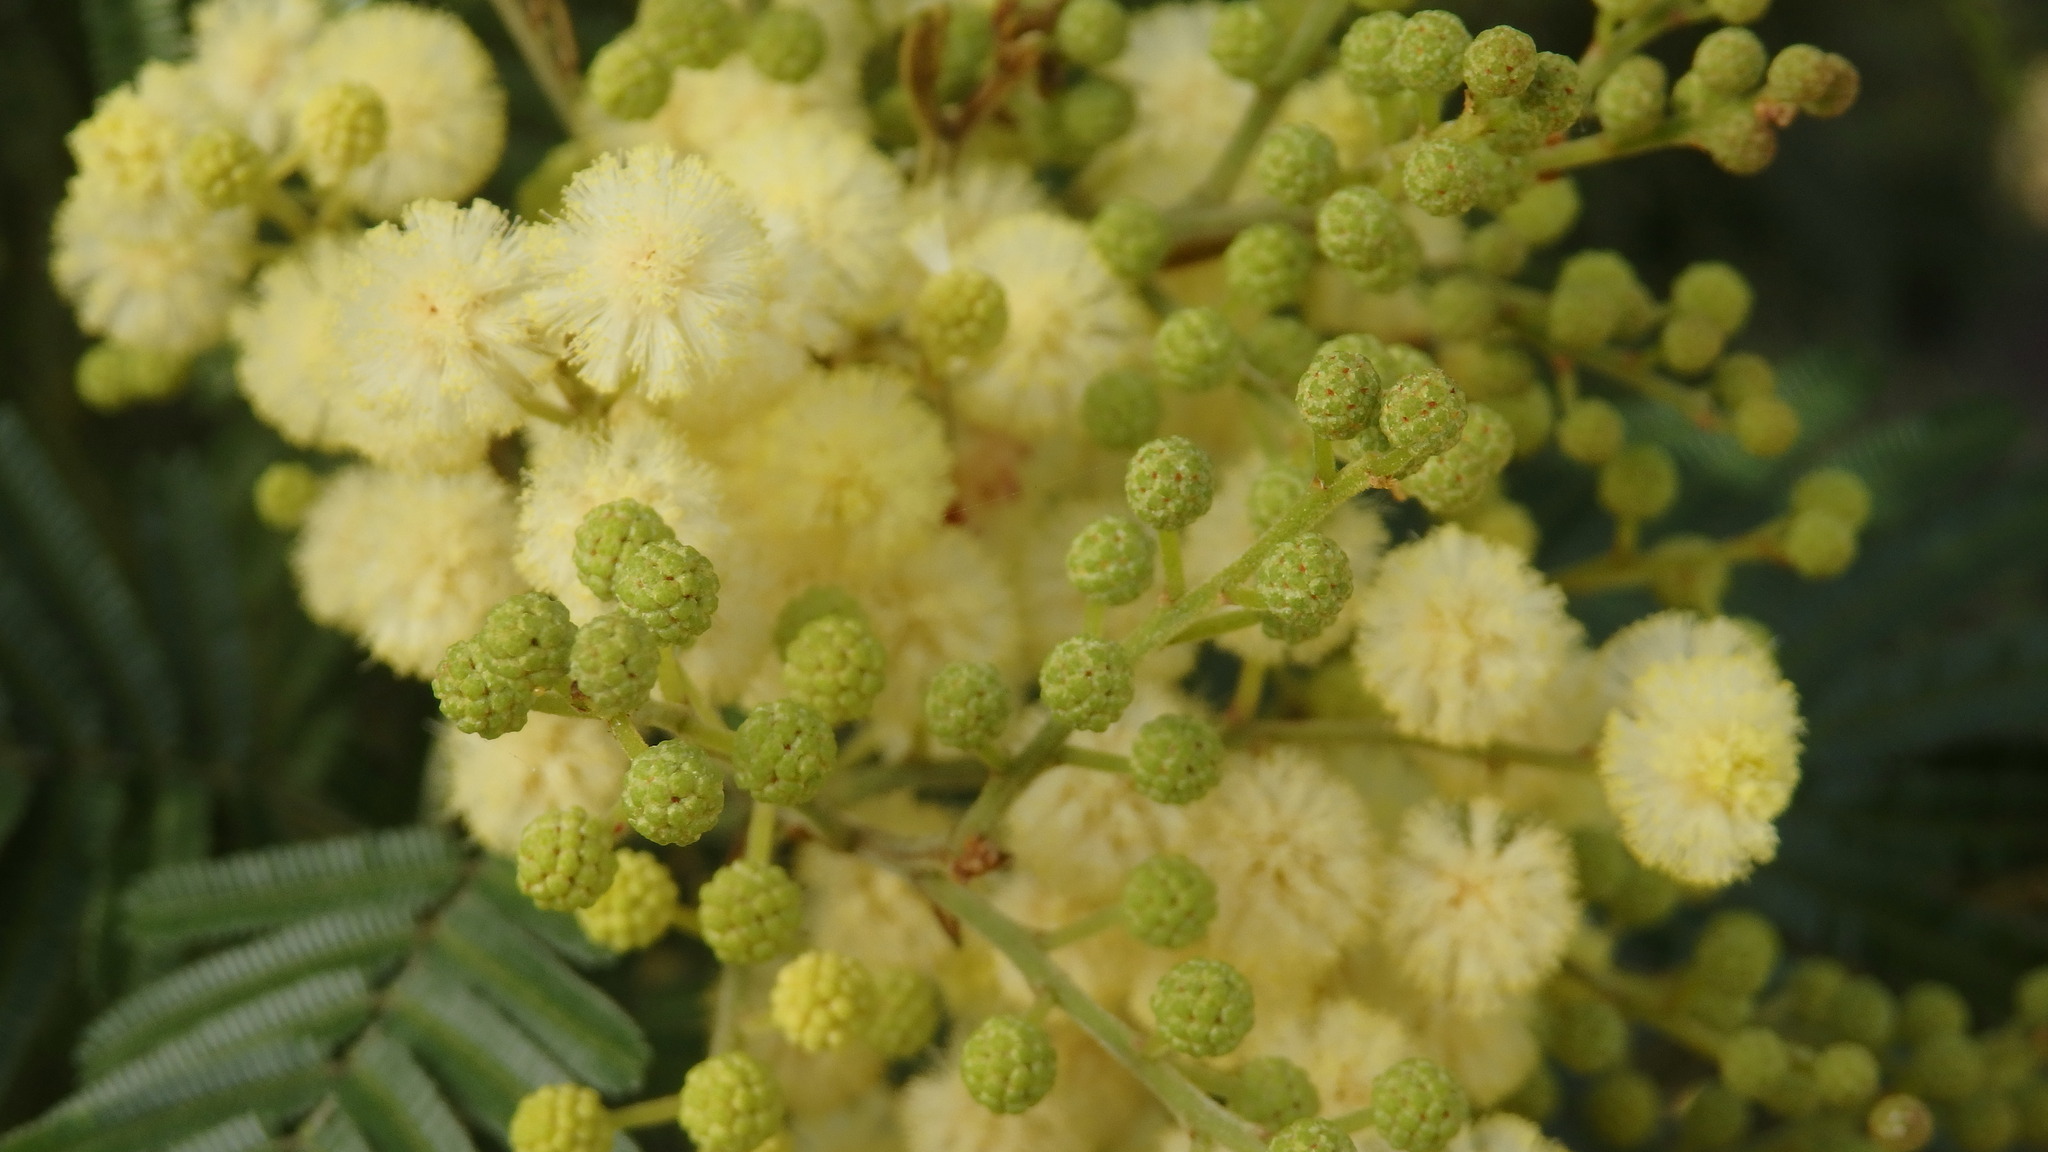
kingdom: Plantae
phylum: Tracheophyta
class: Magnoliopsida
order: Fabales
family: Fabaceae
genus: Acacia
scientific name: Acacia dealbata
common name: Silver wattle
